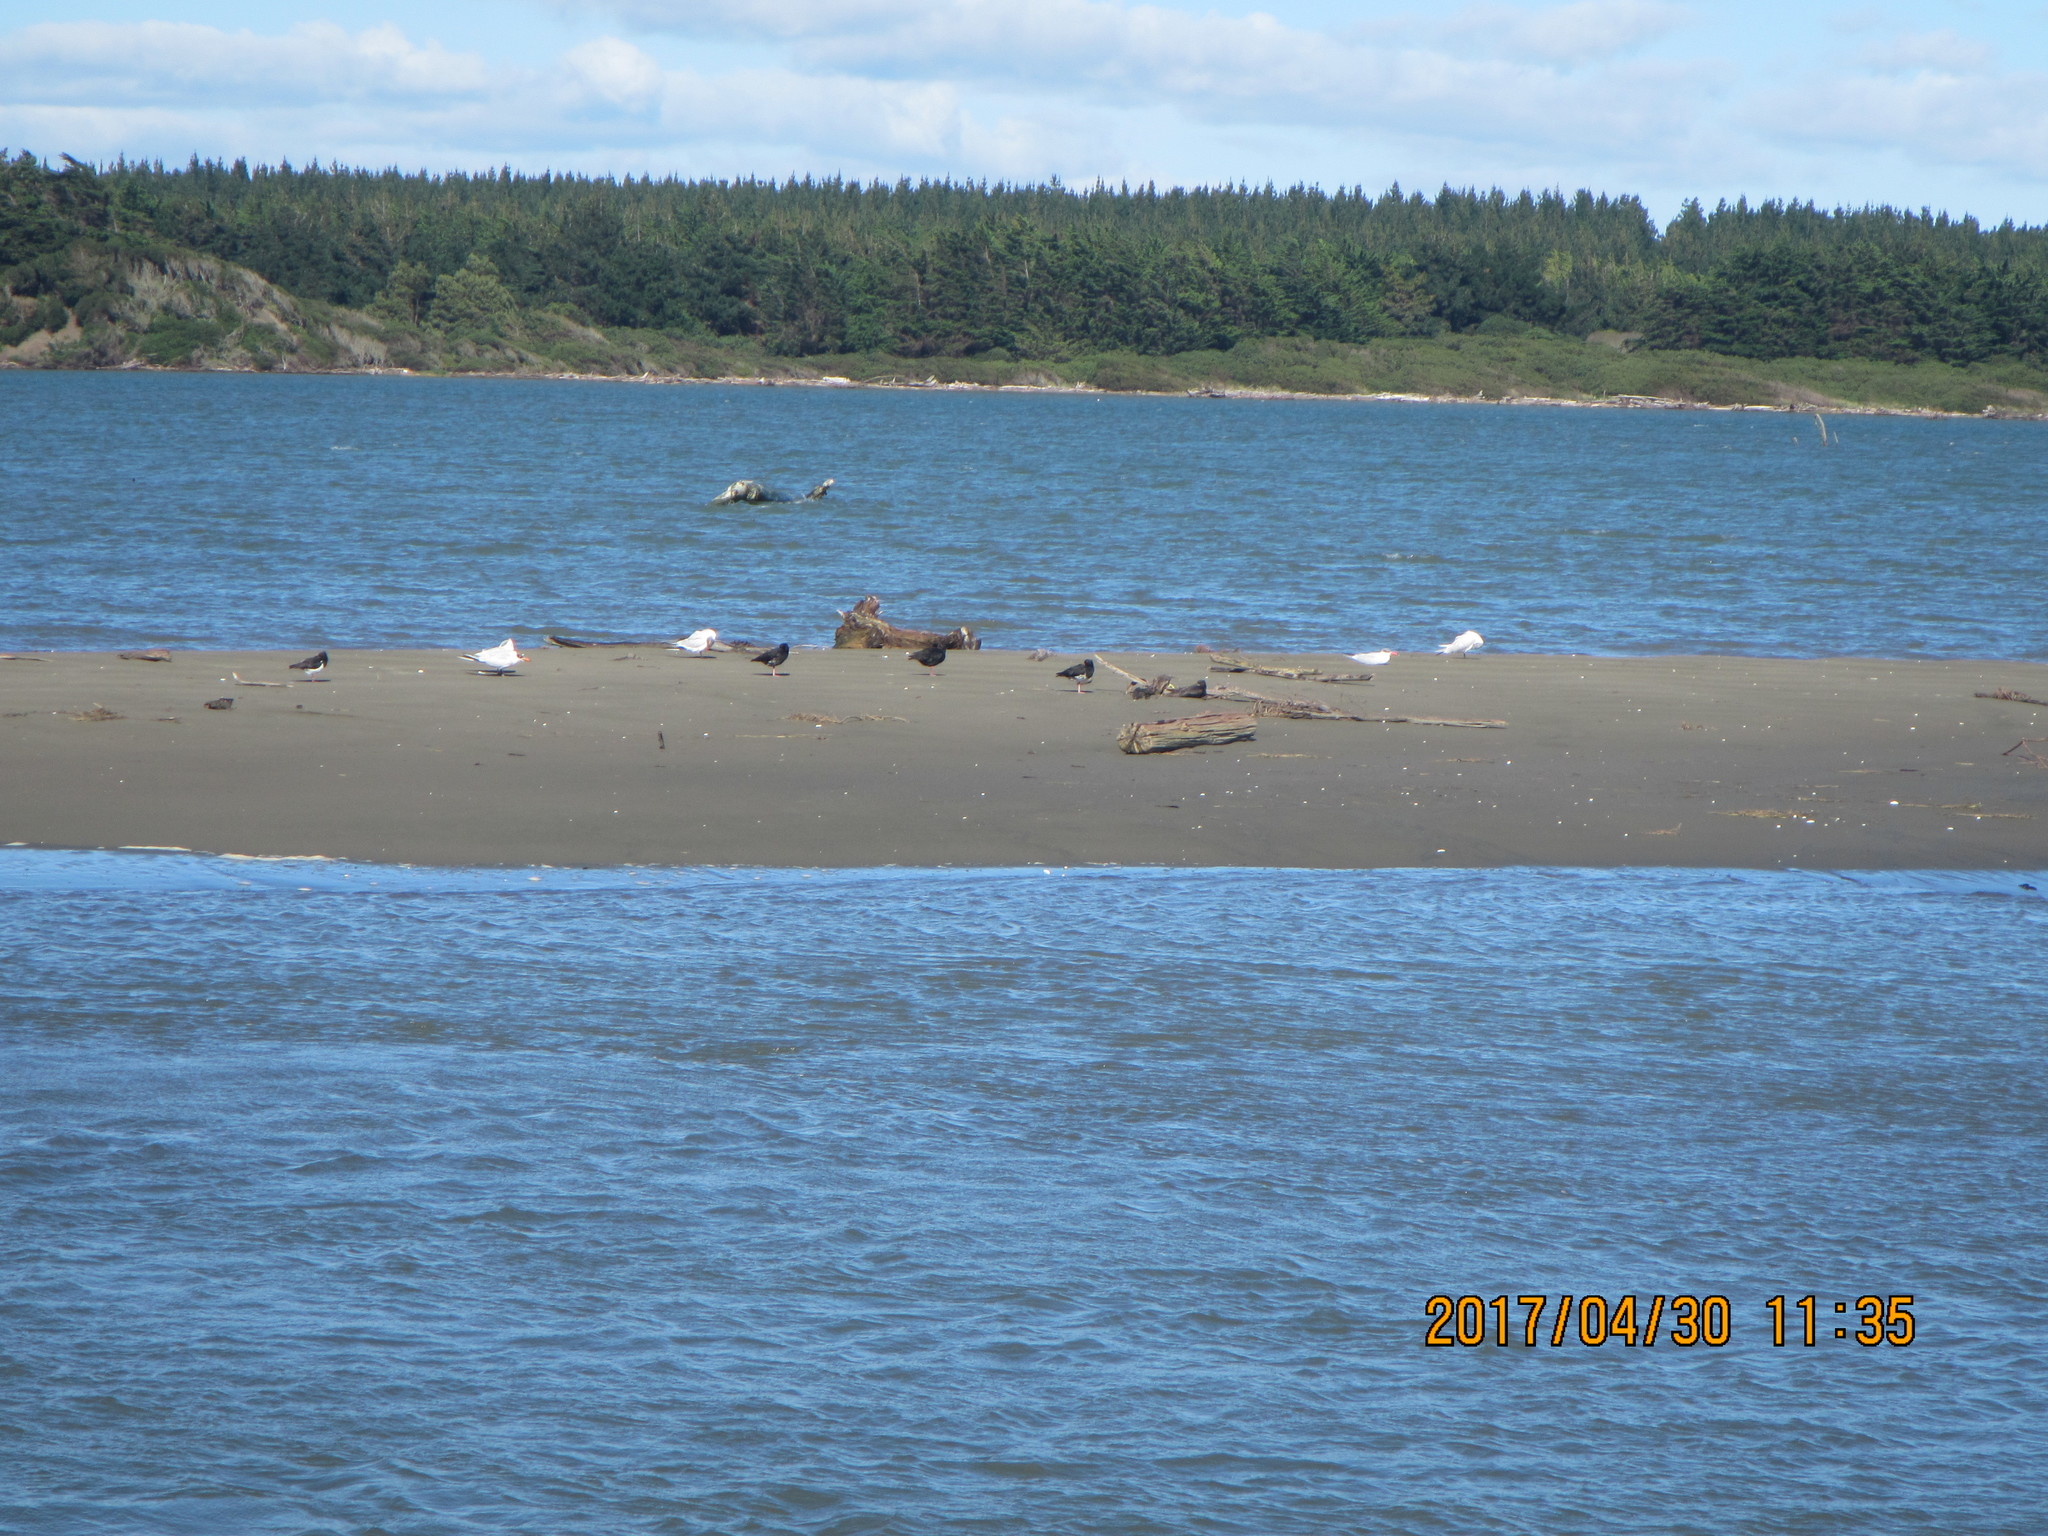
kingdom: Animalia
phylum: Chordata
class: Aves
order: Charadriiformes
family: Laridae
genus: Hydroprogne
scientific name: Hydroprogne caspia
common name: Caspian tern
